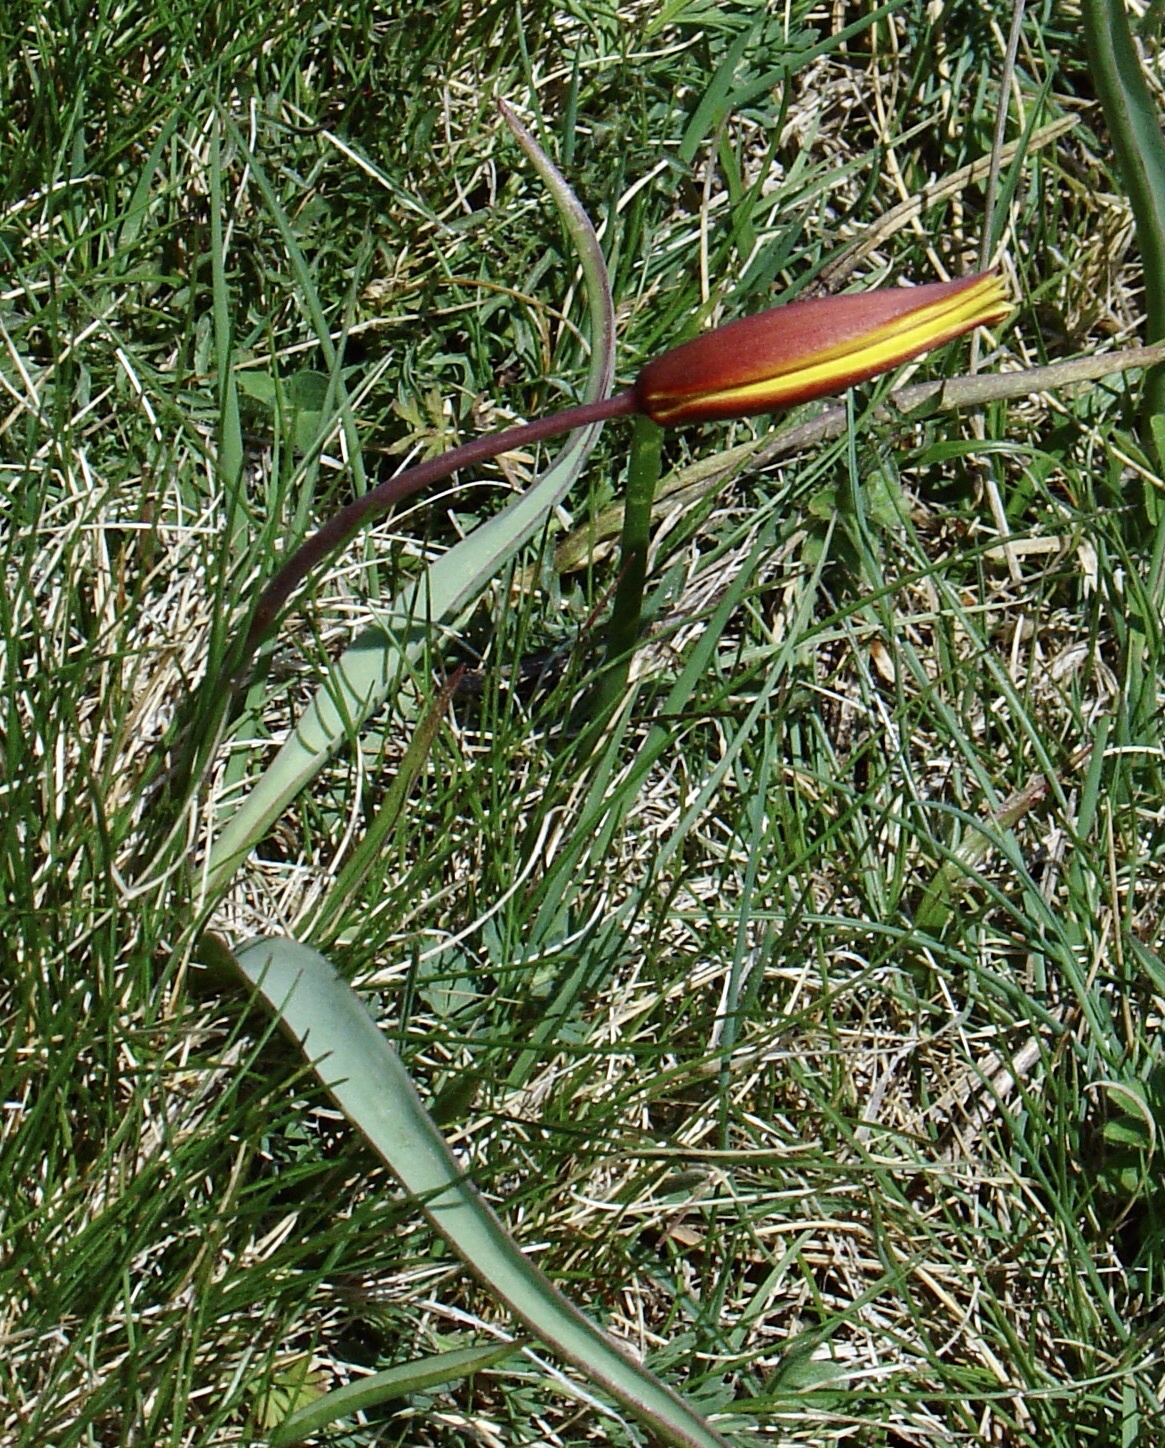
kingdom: Plantae
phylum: Tracheophyta
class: Liliopsida
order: Liliales
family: Liliaceae
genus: Tulipa
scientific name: Tulipa sylvestris
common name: Wild tulip
